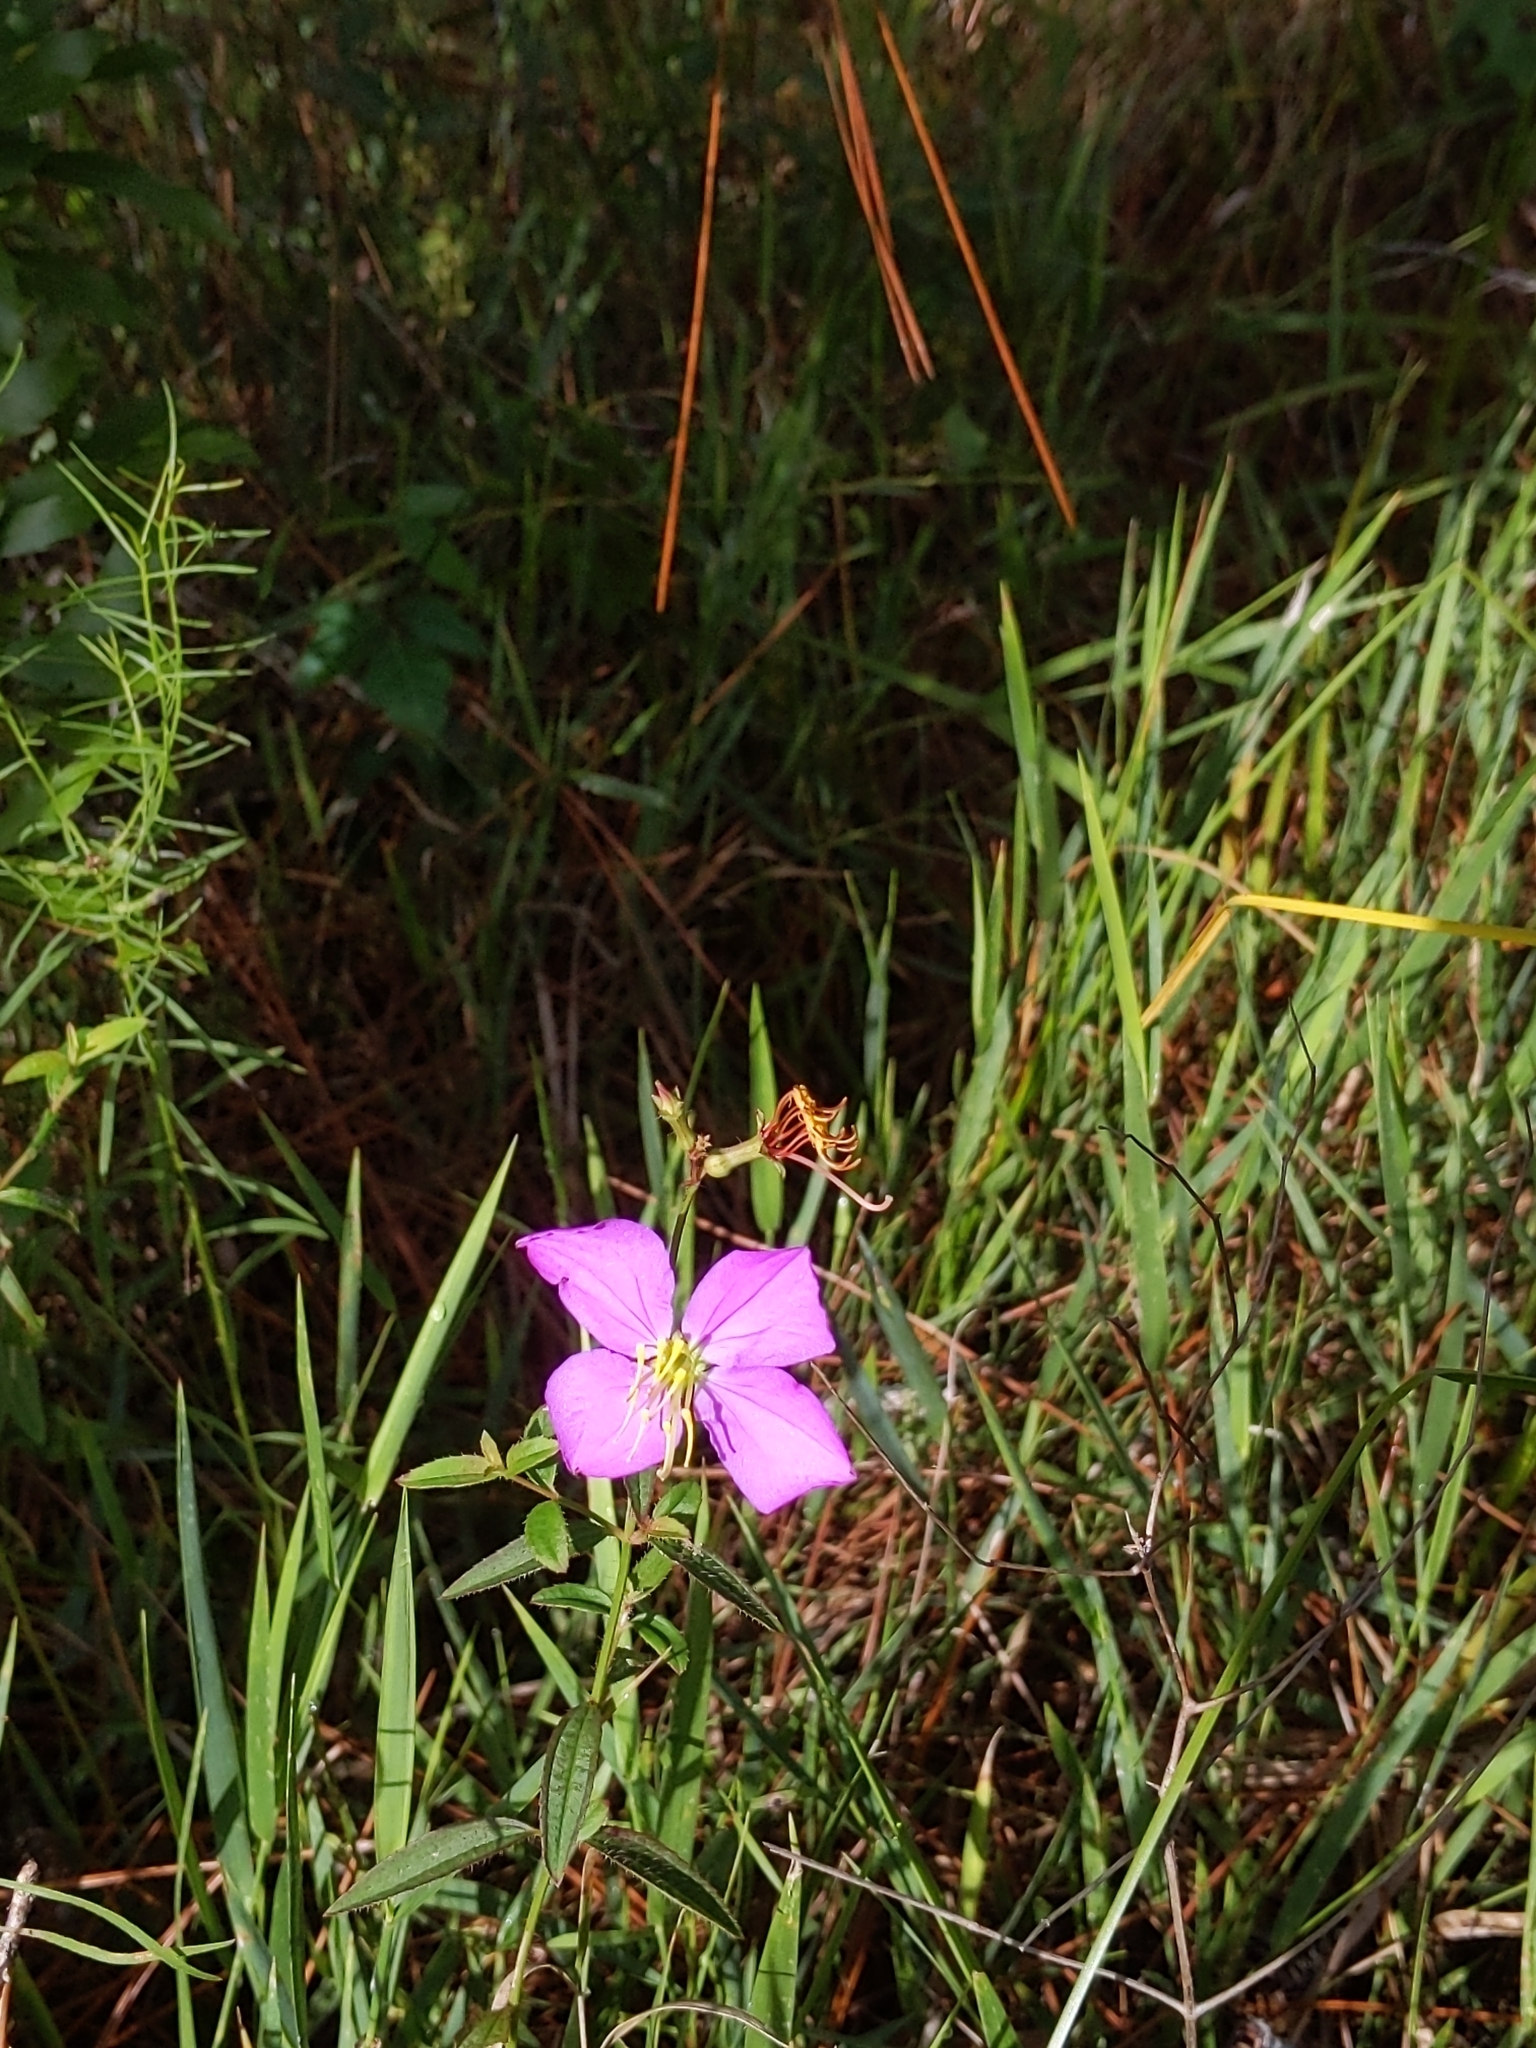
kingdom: Plantae
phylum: Tracheophyta
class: Magnoliopsida
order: Myrtales
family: Melastomataceae
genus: Rhexia
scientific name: Rhexia nashii
